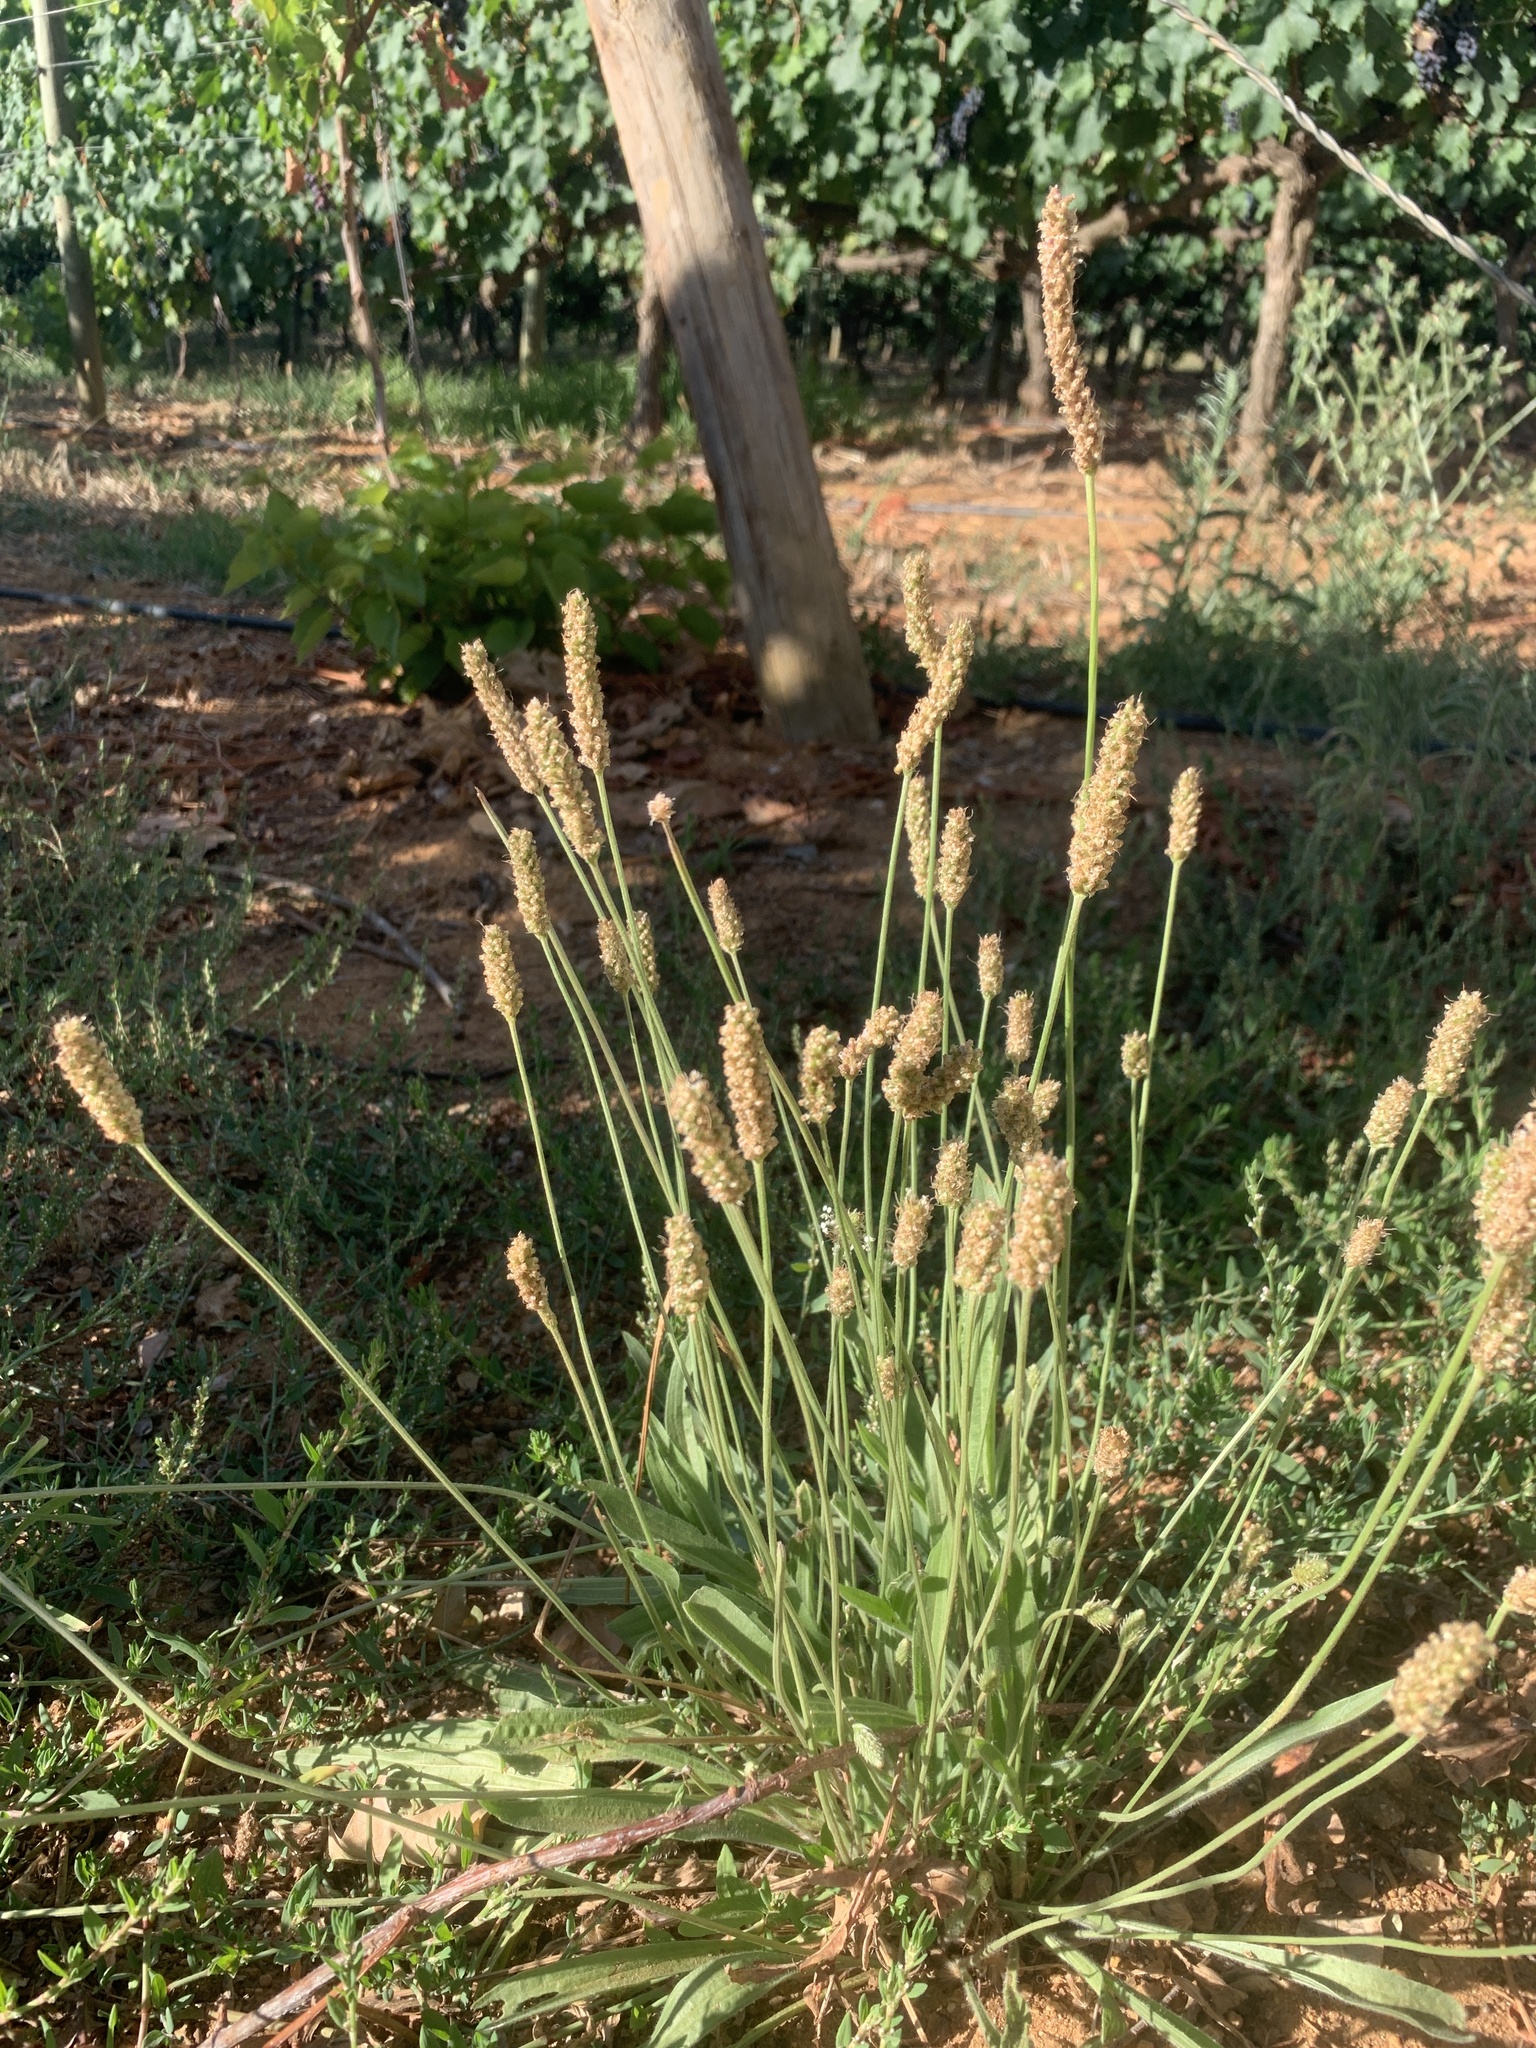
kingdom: Plantae
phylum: Tracheophyta
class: Magnoliopsida
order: Lamiales
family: Plantaginaceae
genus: Plantago
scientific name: Plantago lanceolata
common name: Ribwort plantain
